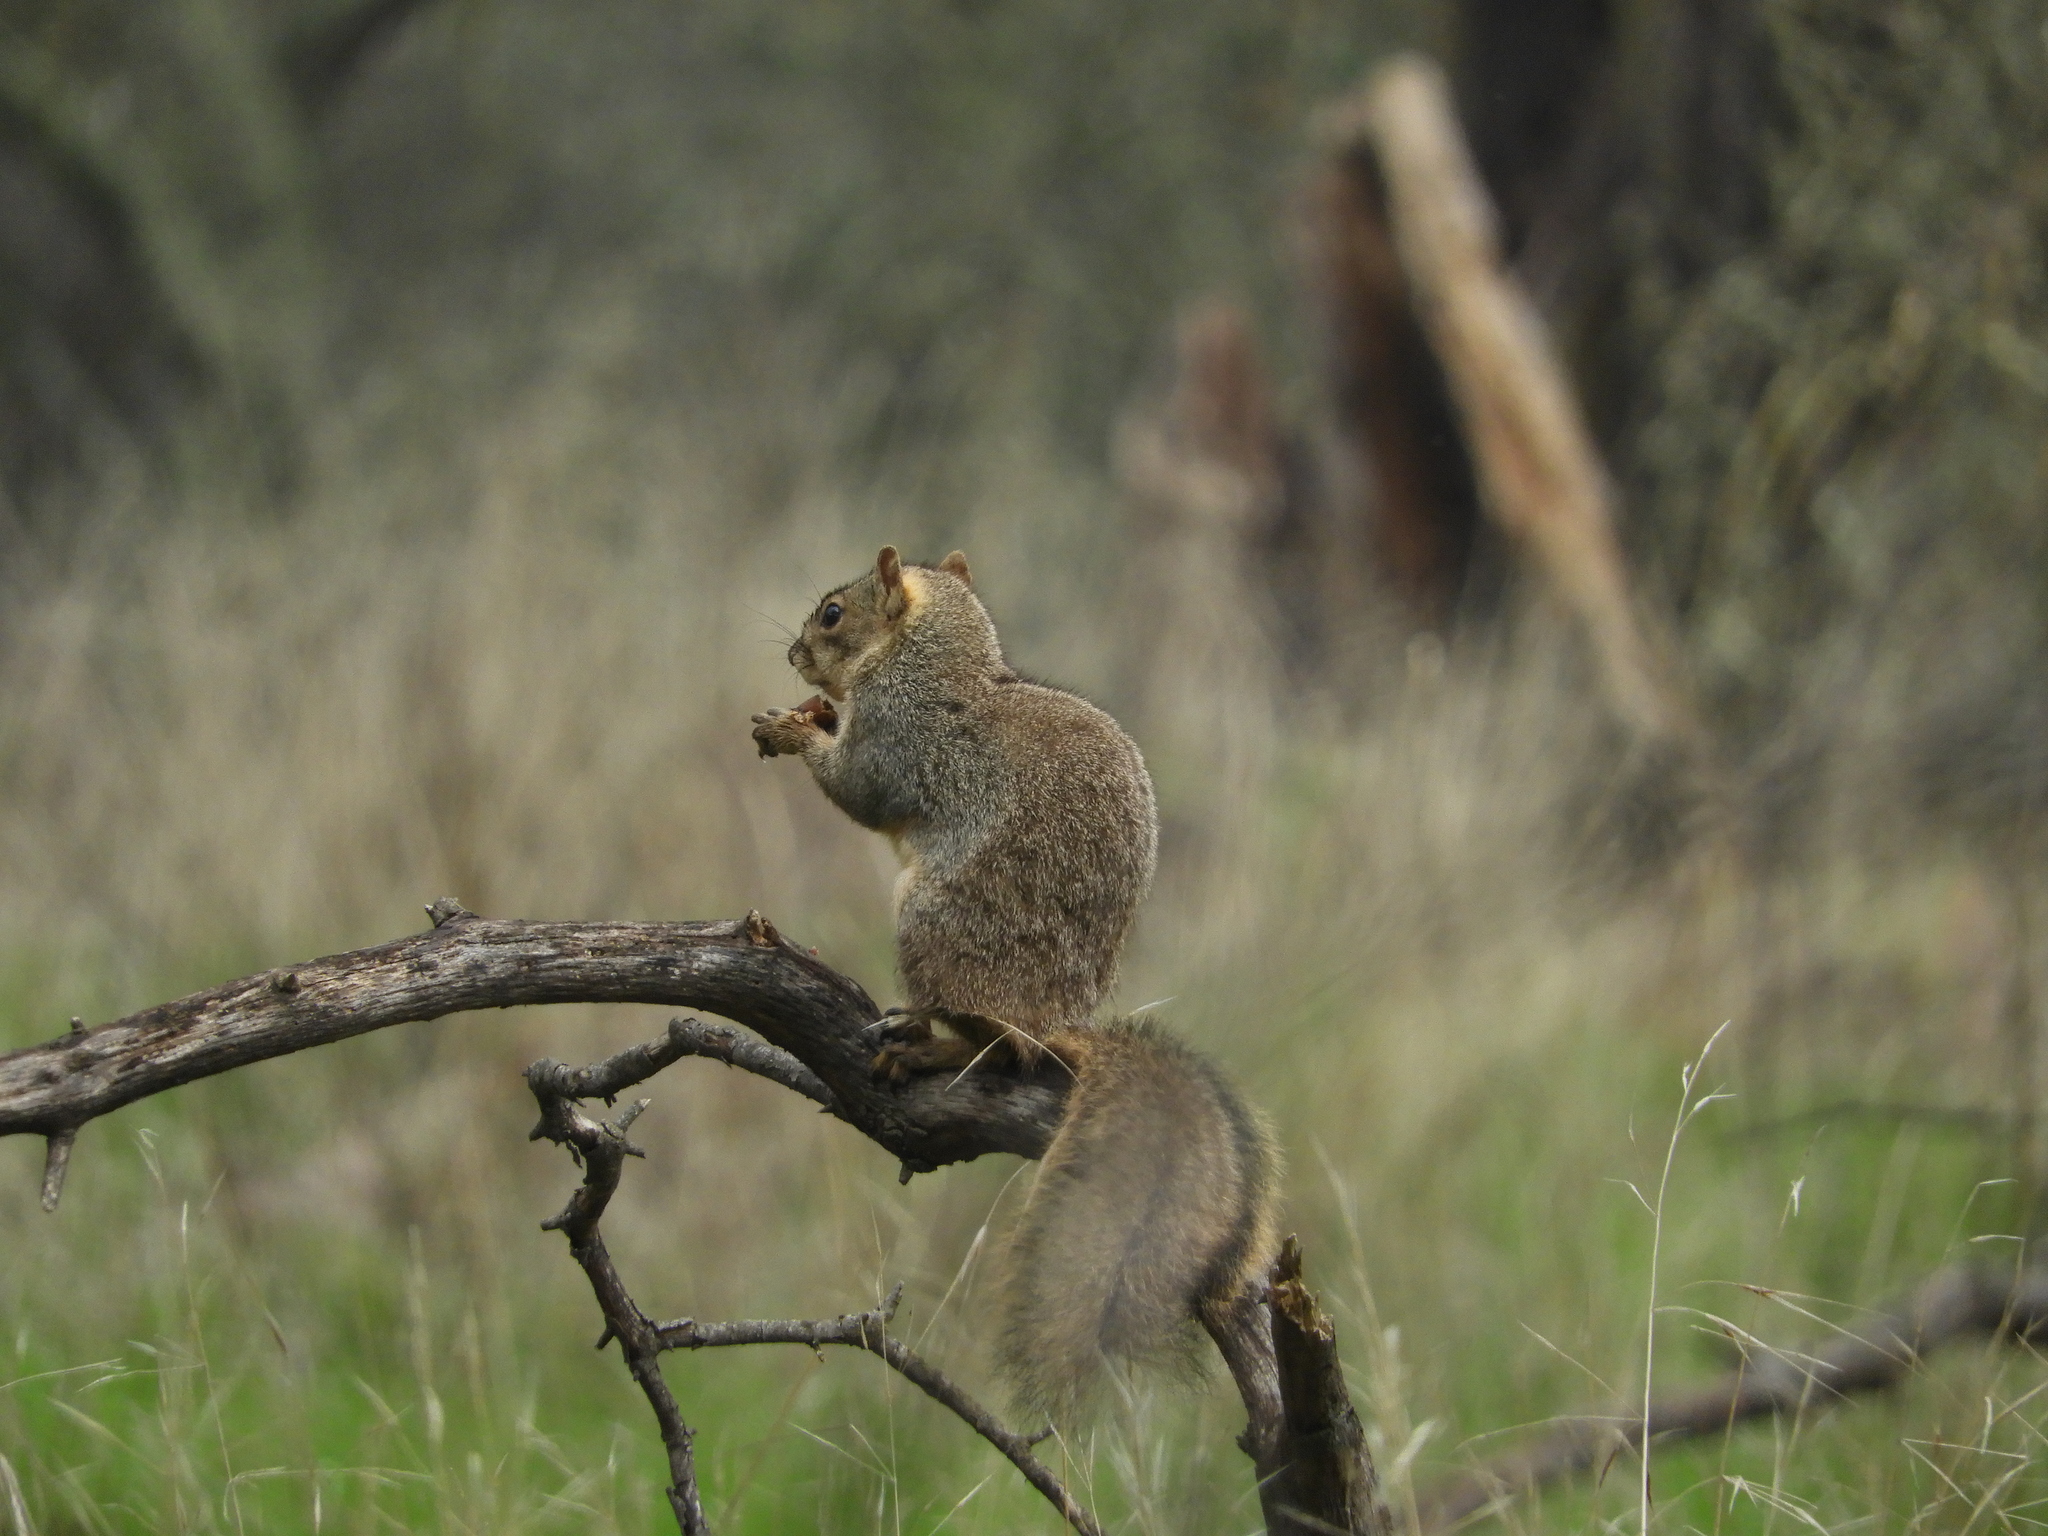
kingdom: Animalia
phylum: Chordata
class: Mammalia
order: Rodentia
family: Sciuridae
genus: Sciurus
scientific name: Sciurus niger
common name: Fox squirrel
